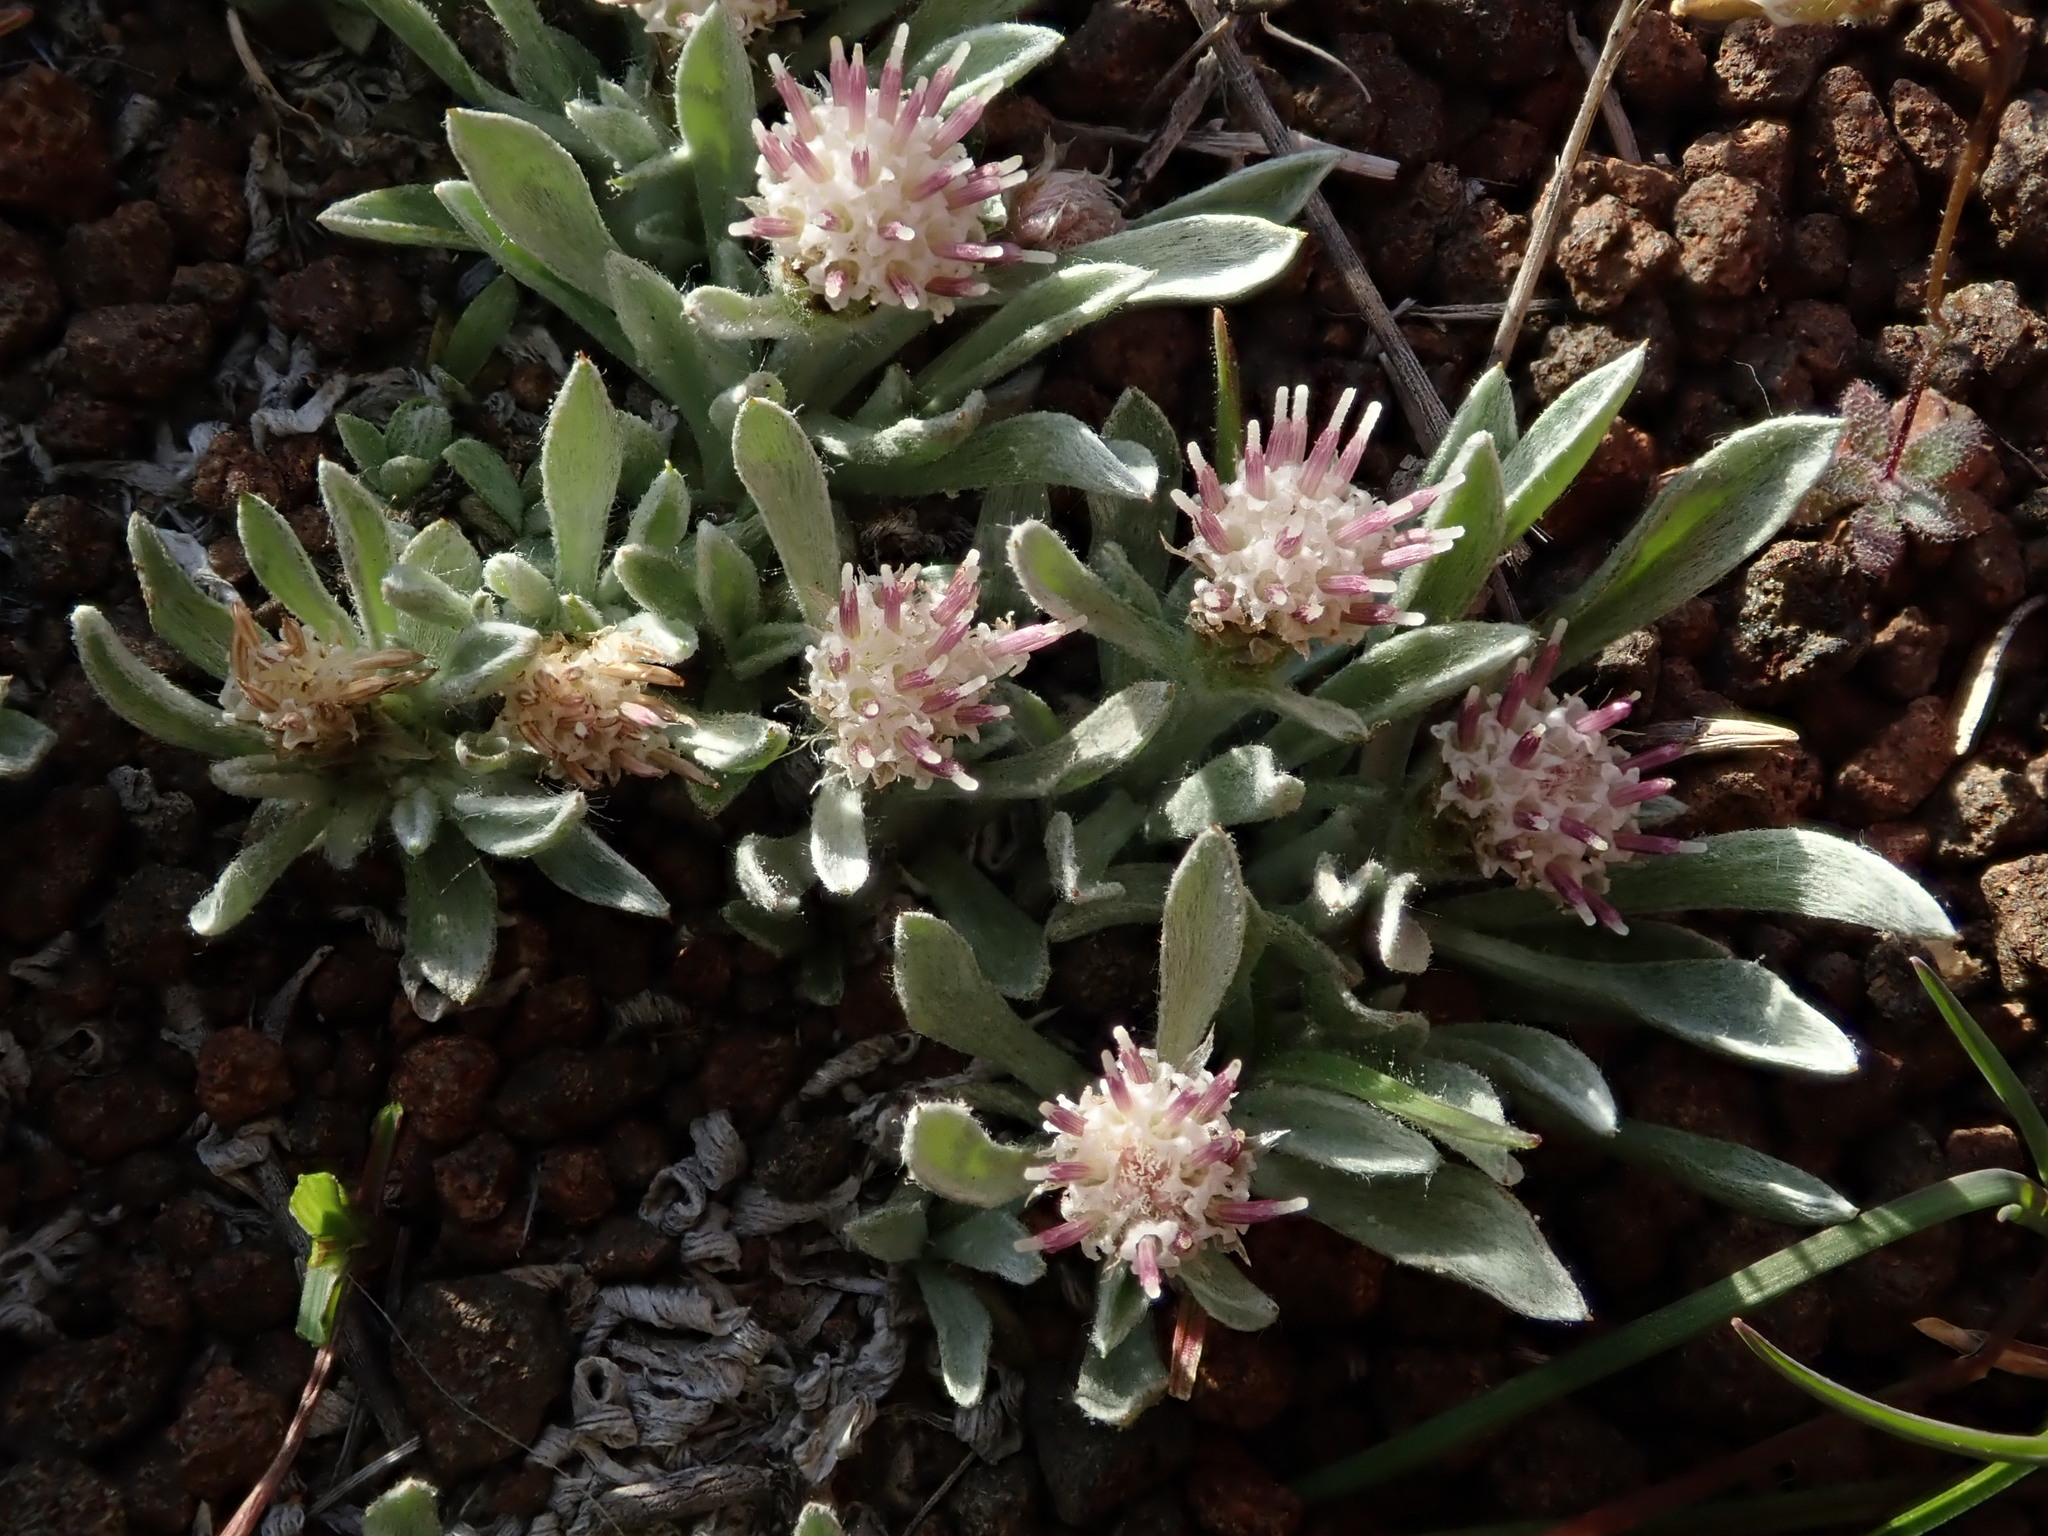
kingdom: Plantae
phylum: Tracheophyta
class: Magnoliopsida
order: Asterales
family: Asteraceae
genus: Antennaria
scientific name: Antennaria dimorpha
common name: Cushion pussytoes
